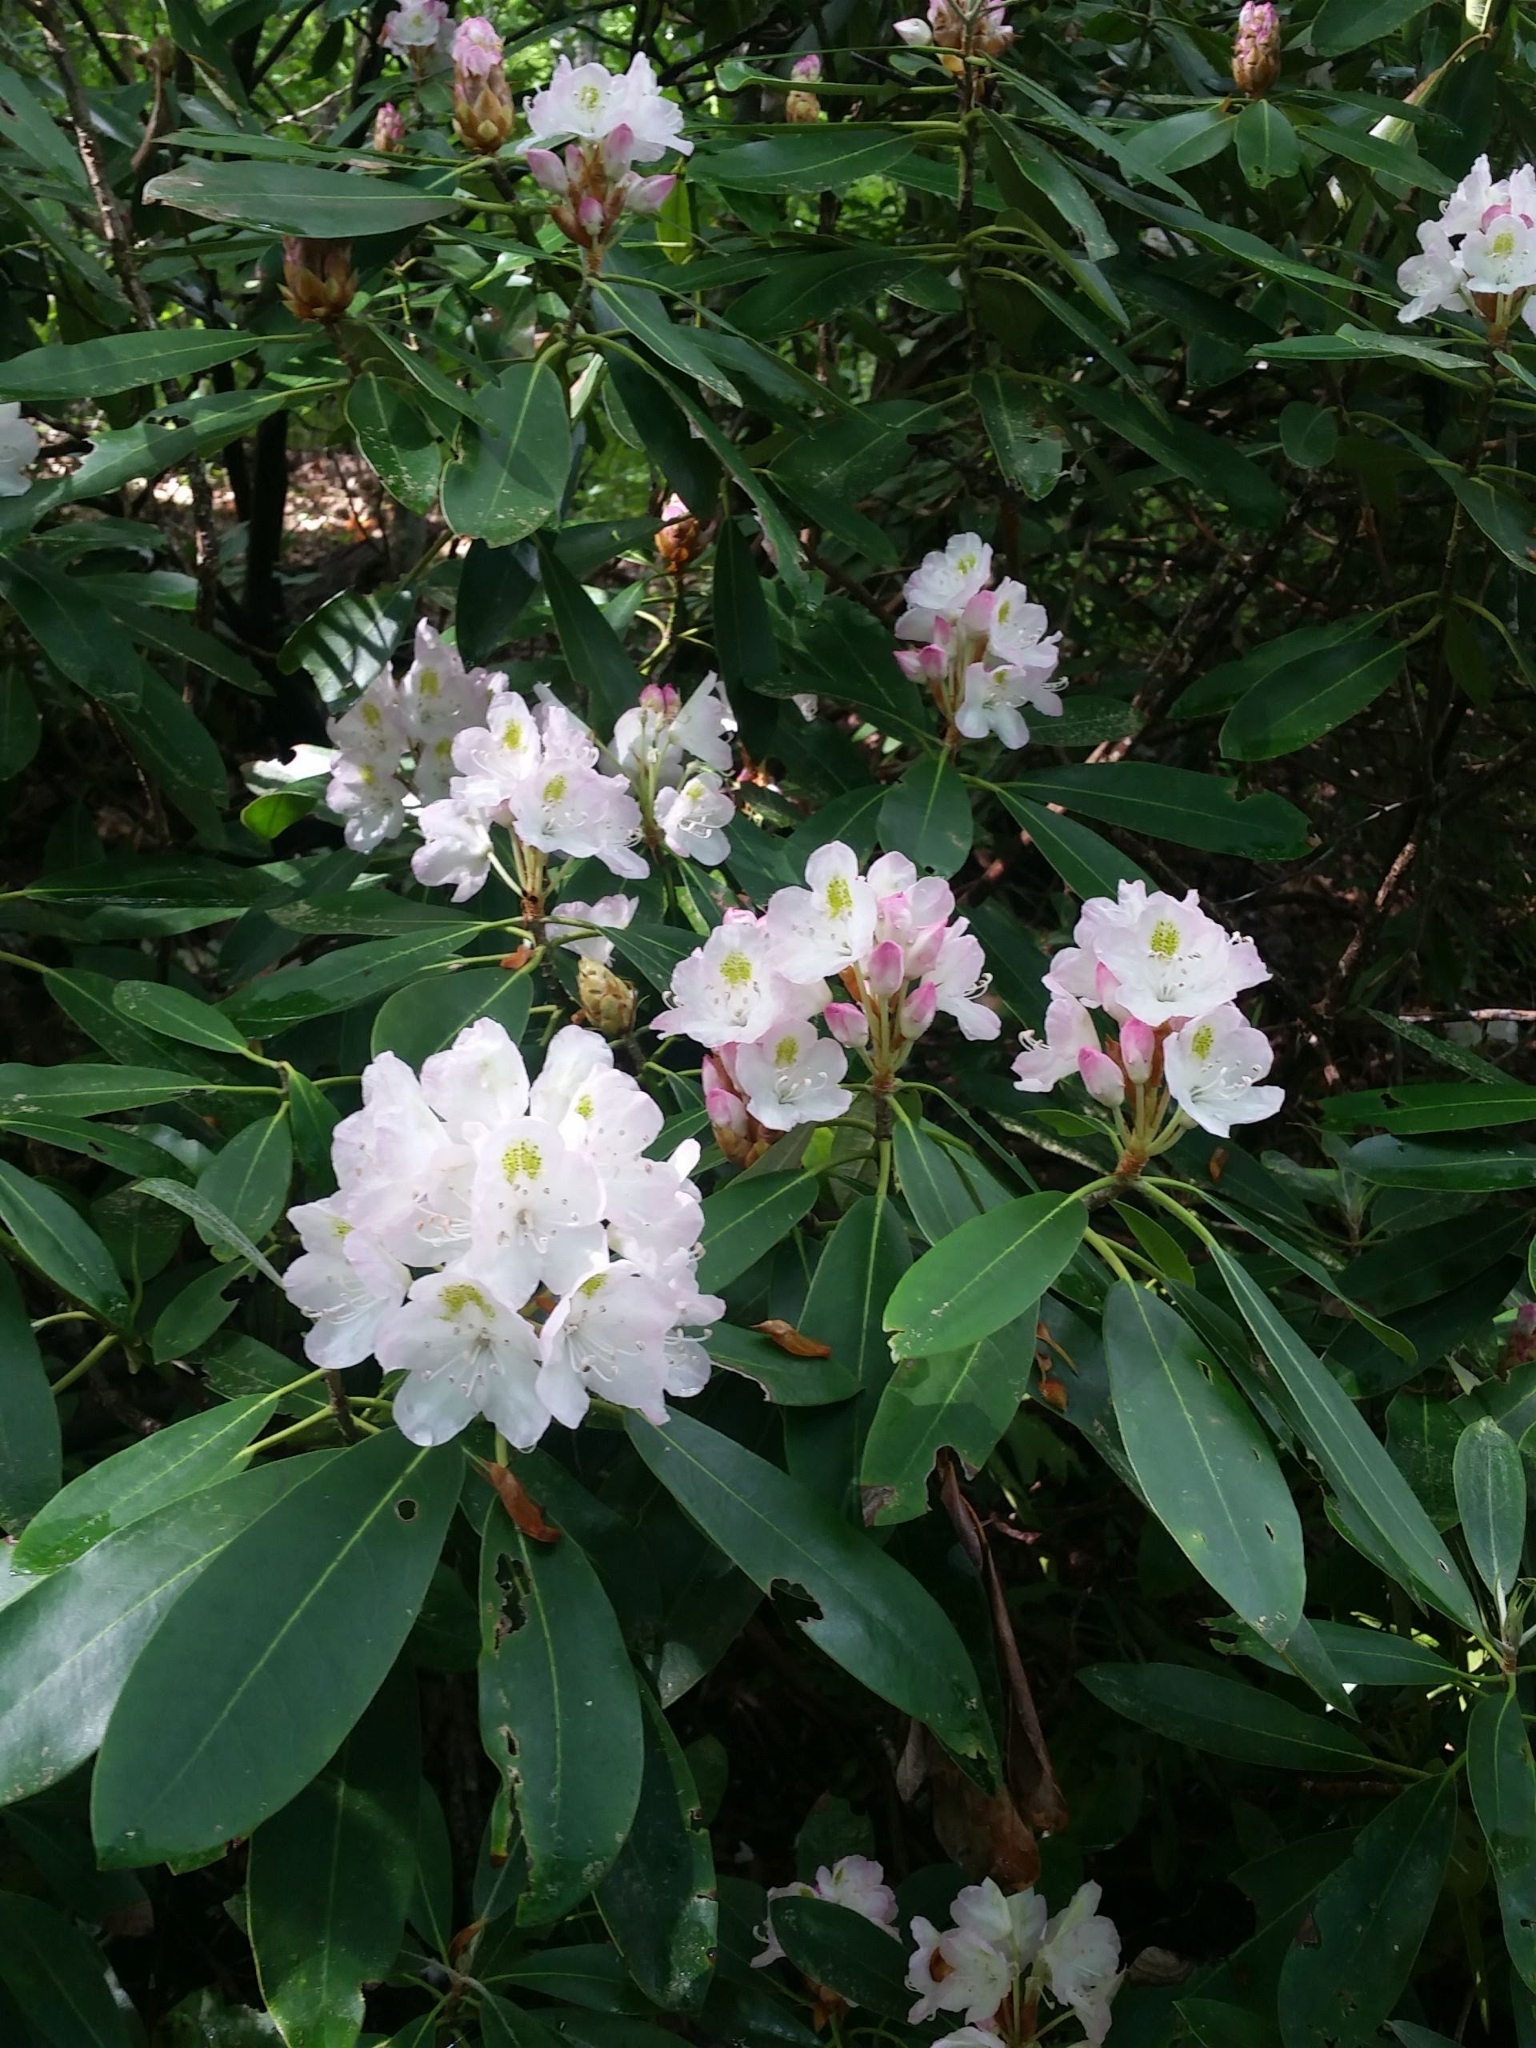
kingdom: Plantae
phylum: Tracheophyta
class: Magnoliopsida
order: Ericales
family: Ericaceae
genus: Rhododendron
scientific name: Rhododendron maximum
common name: Great rhododendron
